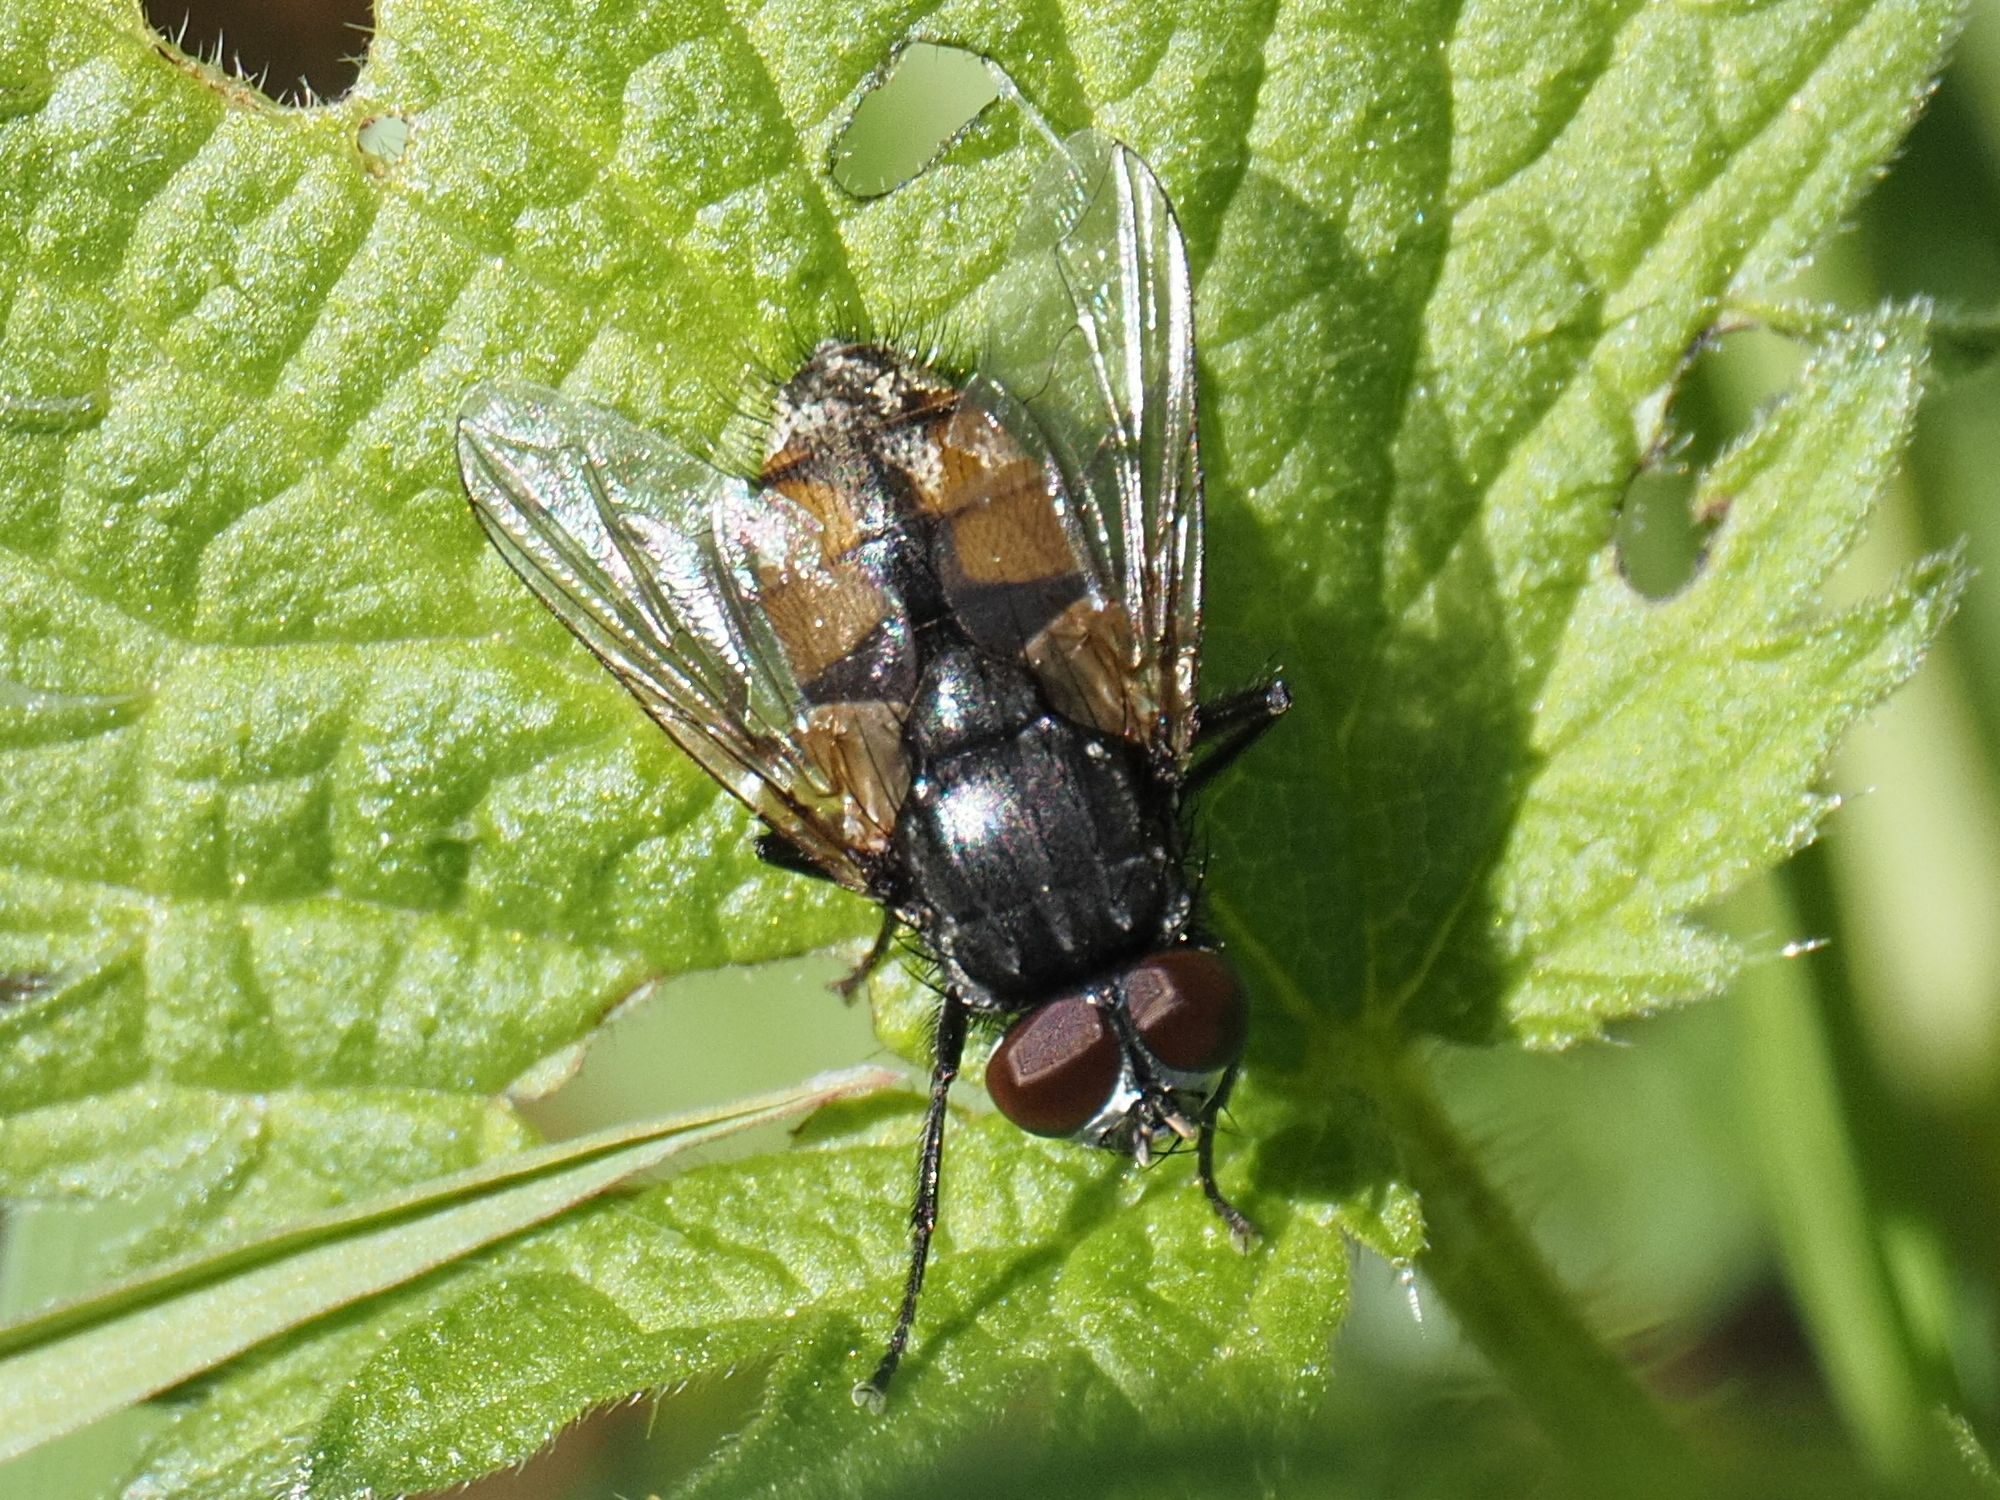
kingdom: Animalia
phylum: Arthropoda
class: Insecta
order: Diptera
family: Muscidae
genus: Musca
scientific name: Musca autumnalis
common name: Face fly
